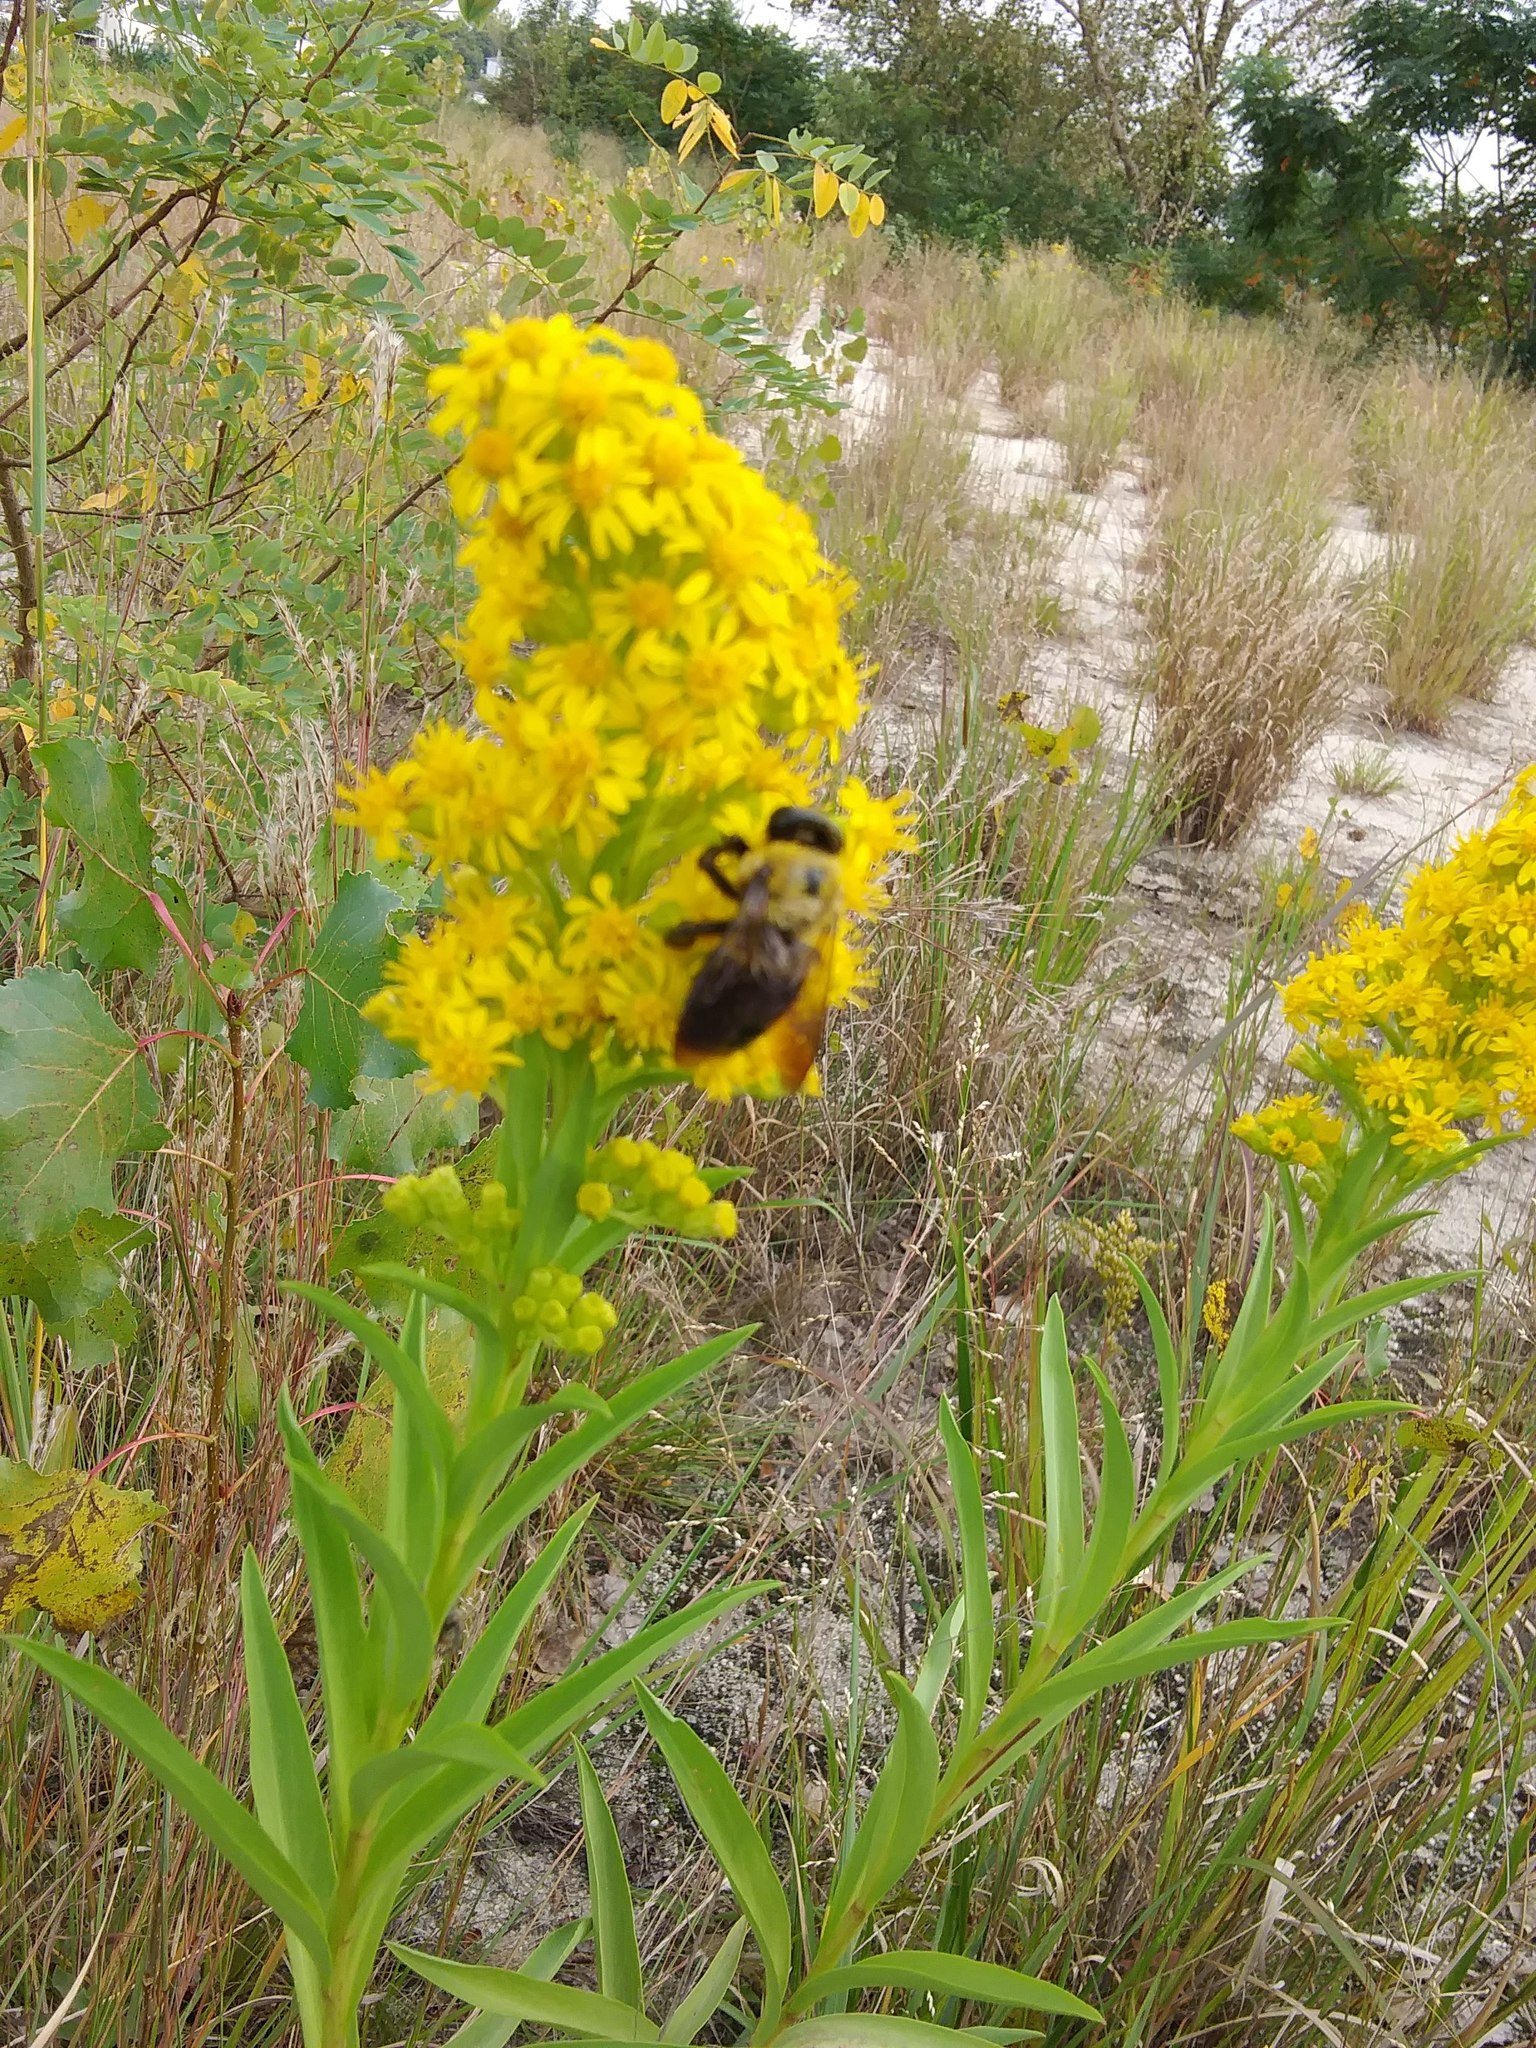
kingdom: Animalia
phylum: Arthropoda
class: Insecta
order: Hymenoptera
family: Apidae
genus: Xylocopa
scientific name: Xylocopa virginica
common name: Carpenter bee
